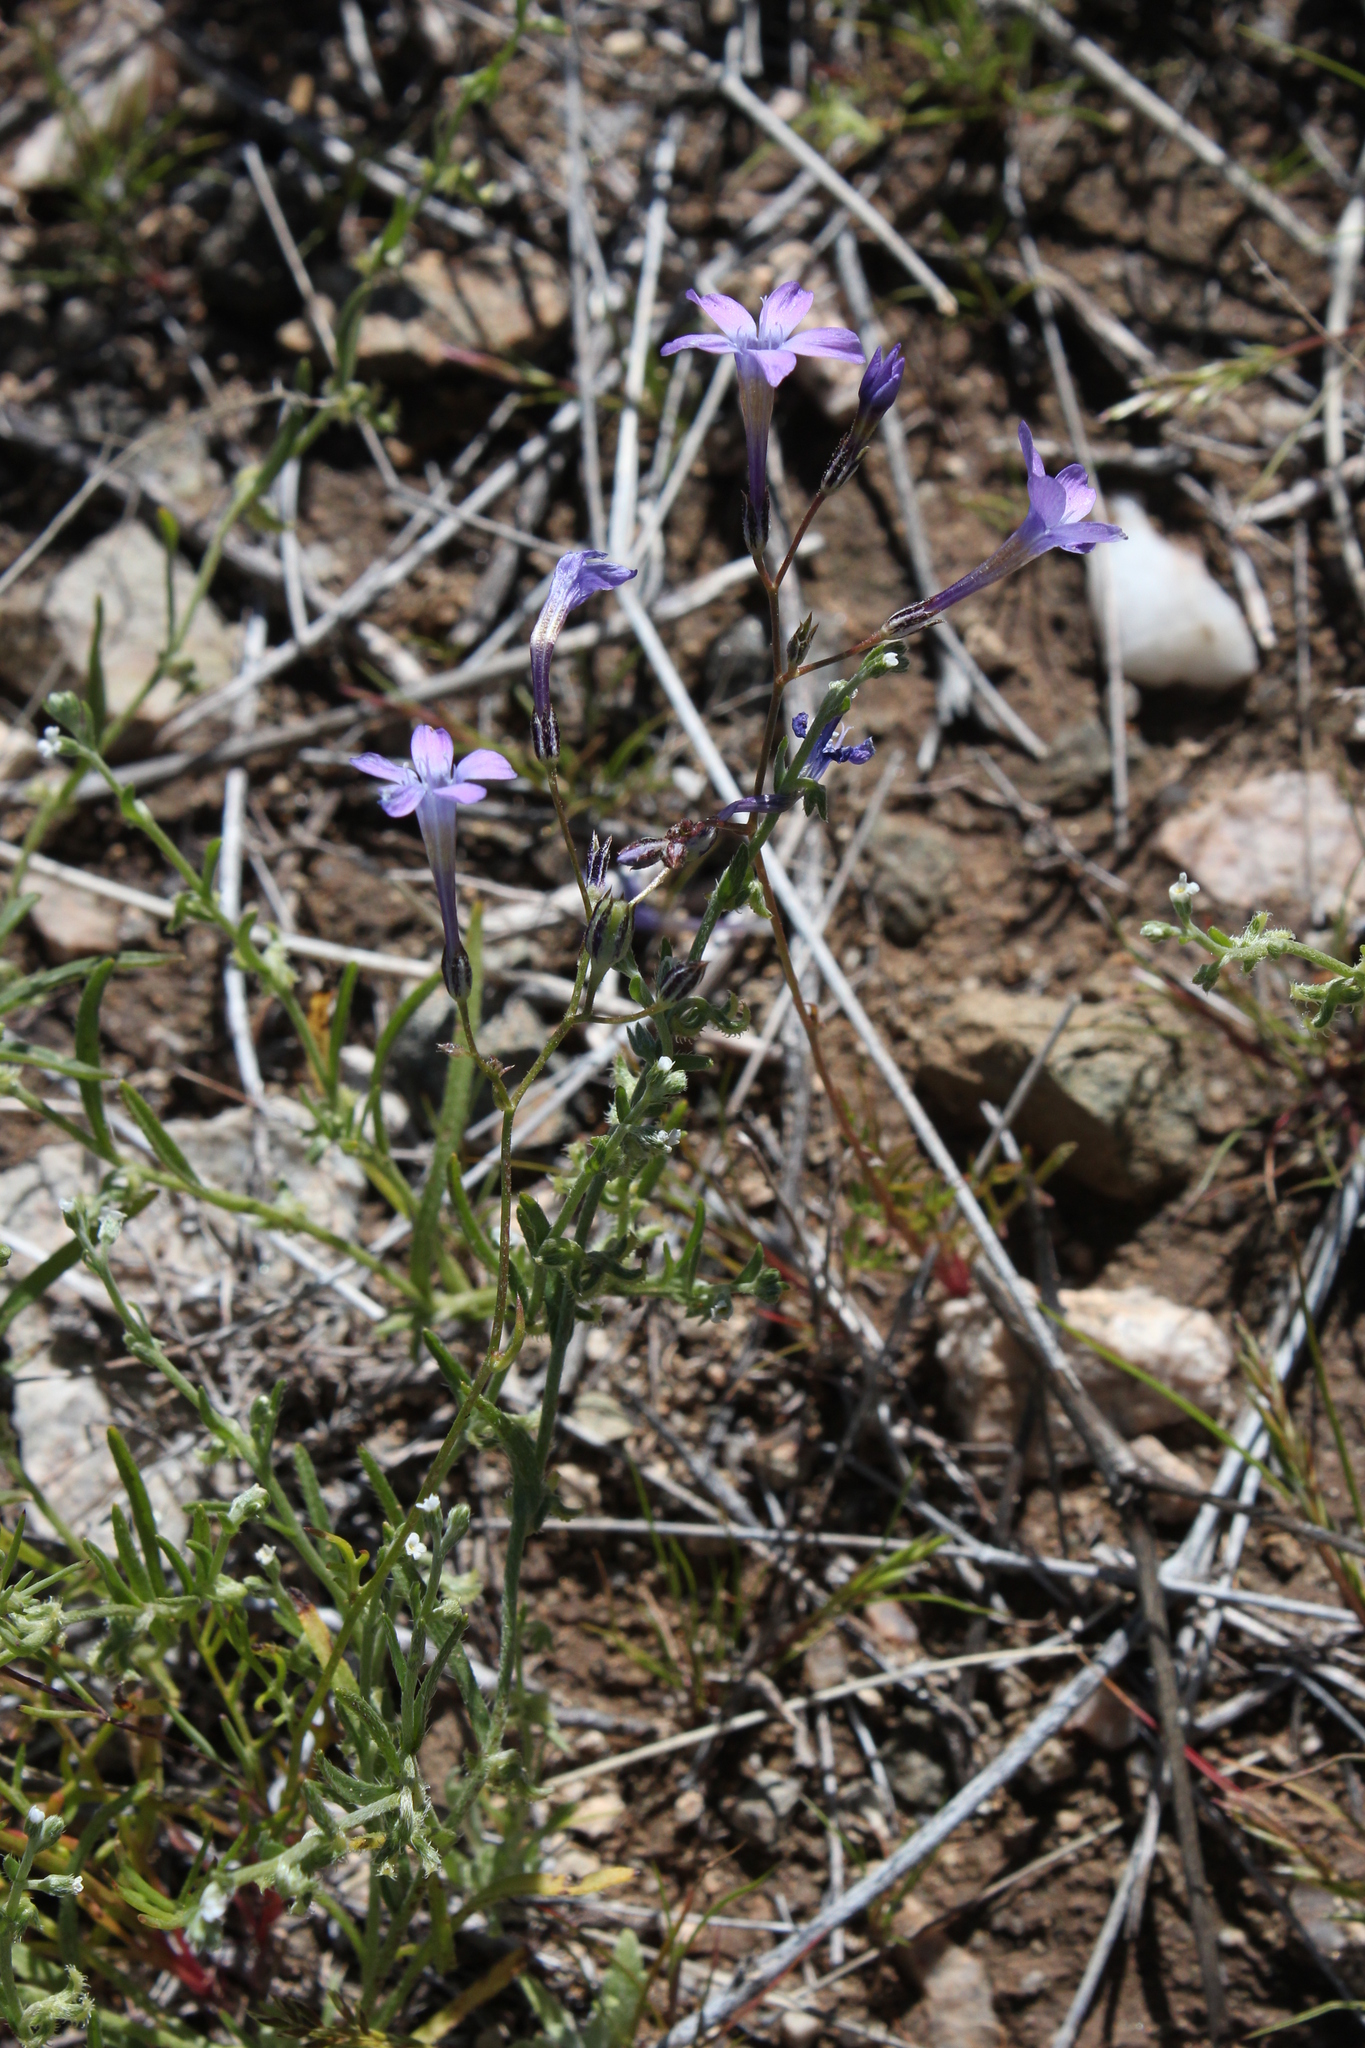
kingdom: Plantae
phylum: Tracheophyta
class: Magnoliopsida
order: Ericales
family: Polemoniaceae
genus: Gilia
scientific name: Gilia flavocincta
